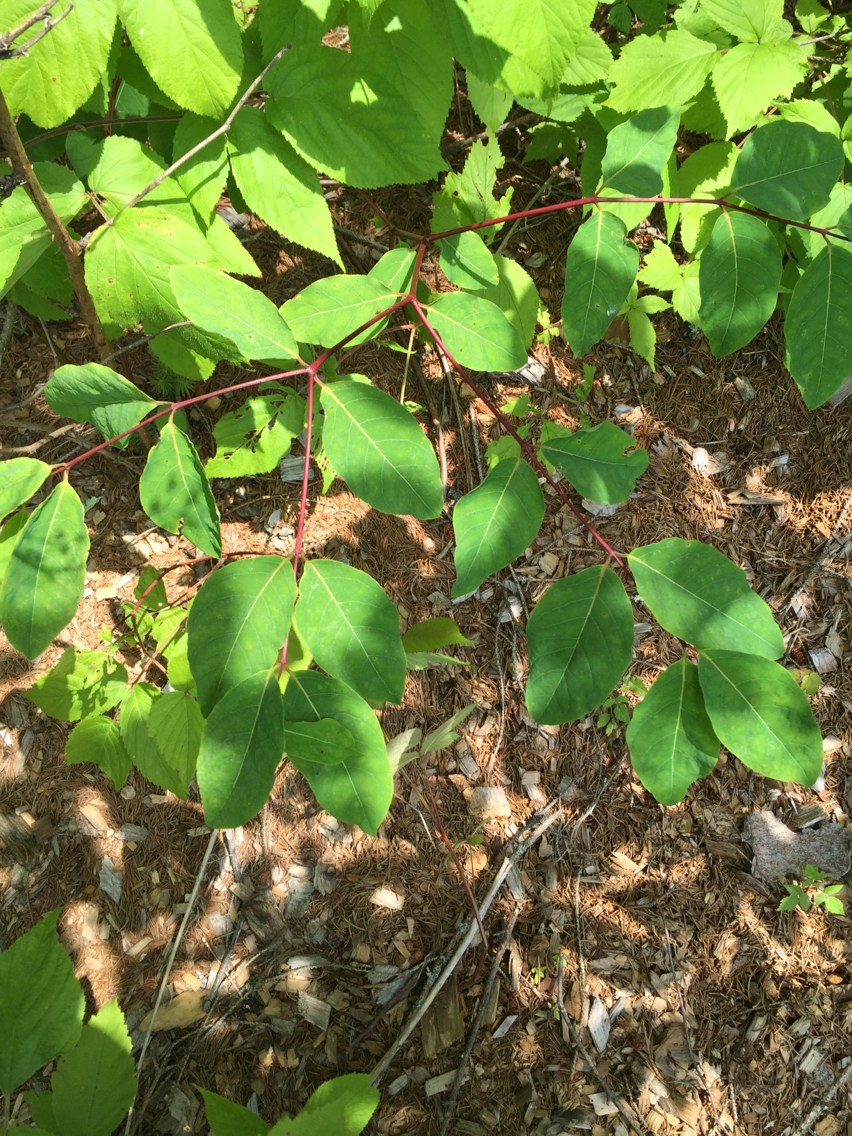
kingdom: Plantae
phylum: Tracheophyta
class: Magnoliopsida
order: Gentianales
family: Apocynaceae
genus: Apocynum
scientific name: Apocynum androsaemifolium
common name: Spreading dogbane
